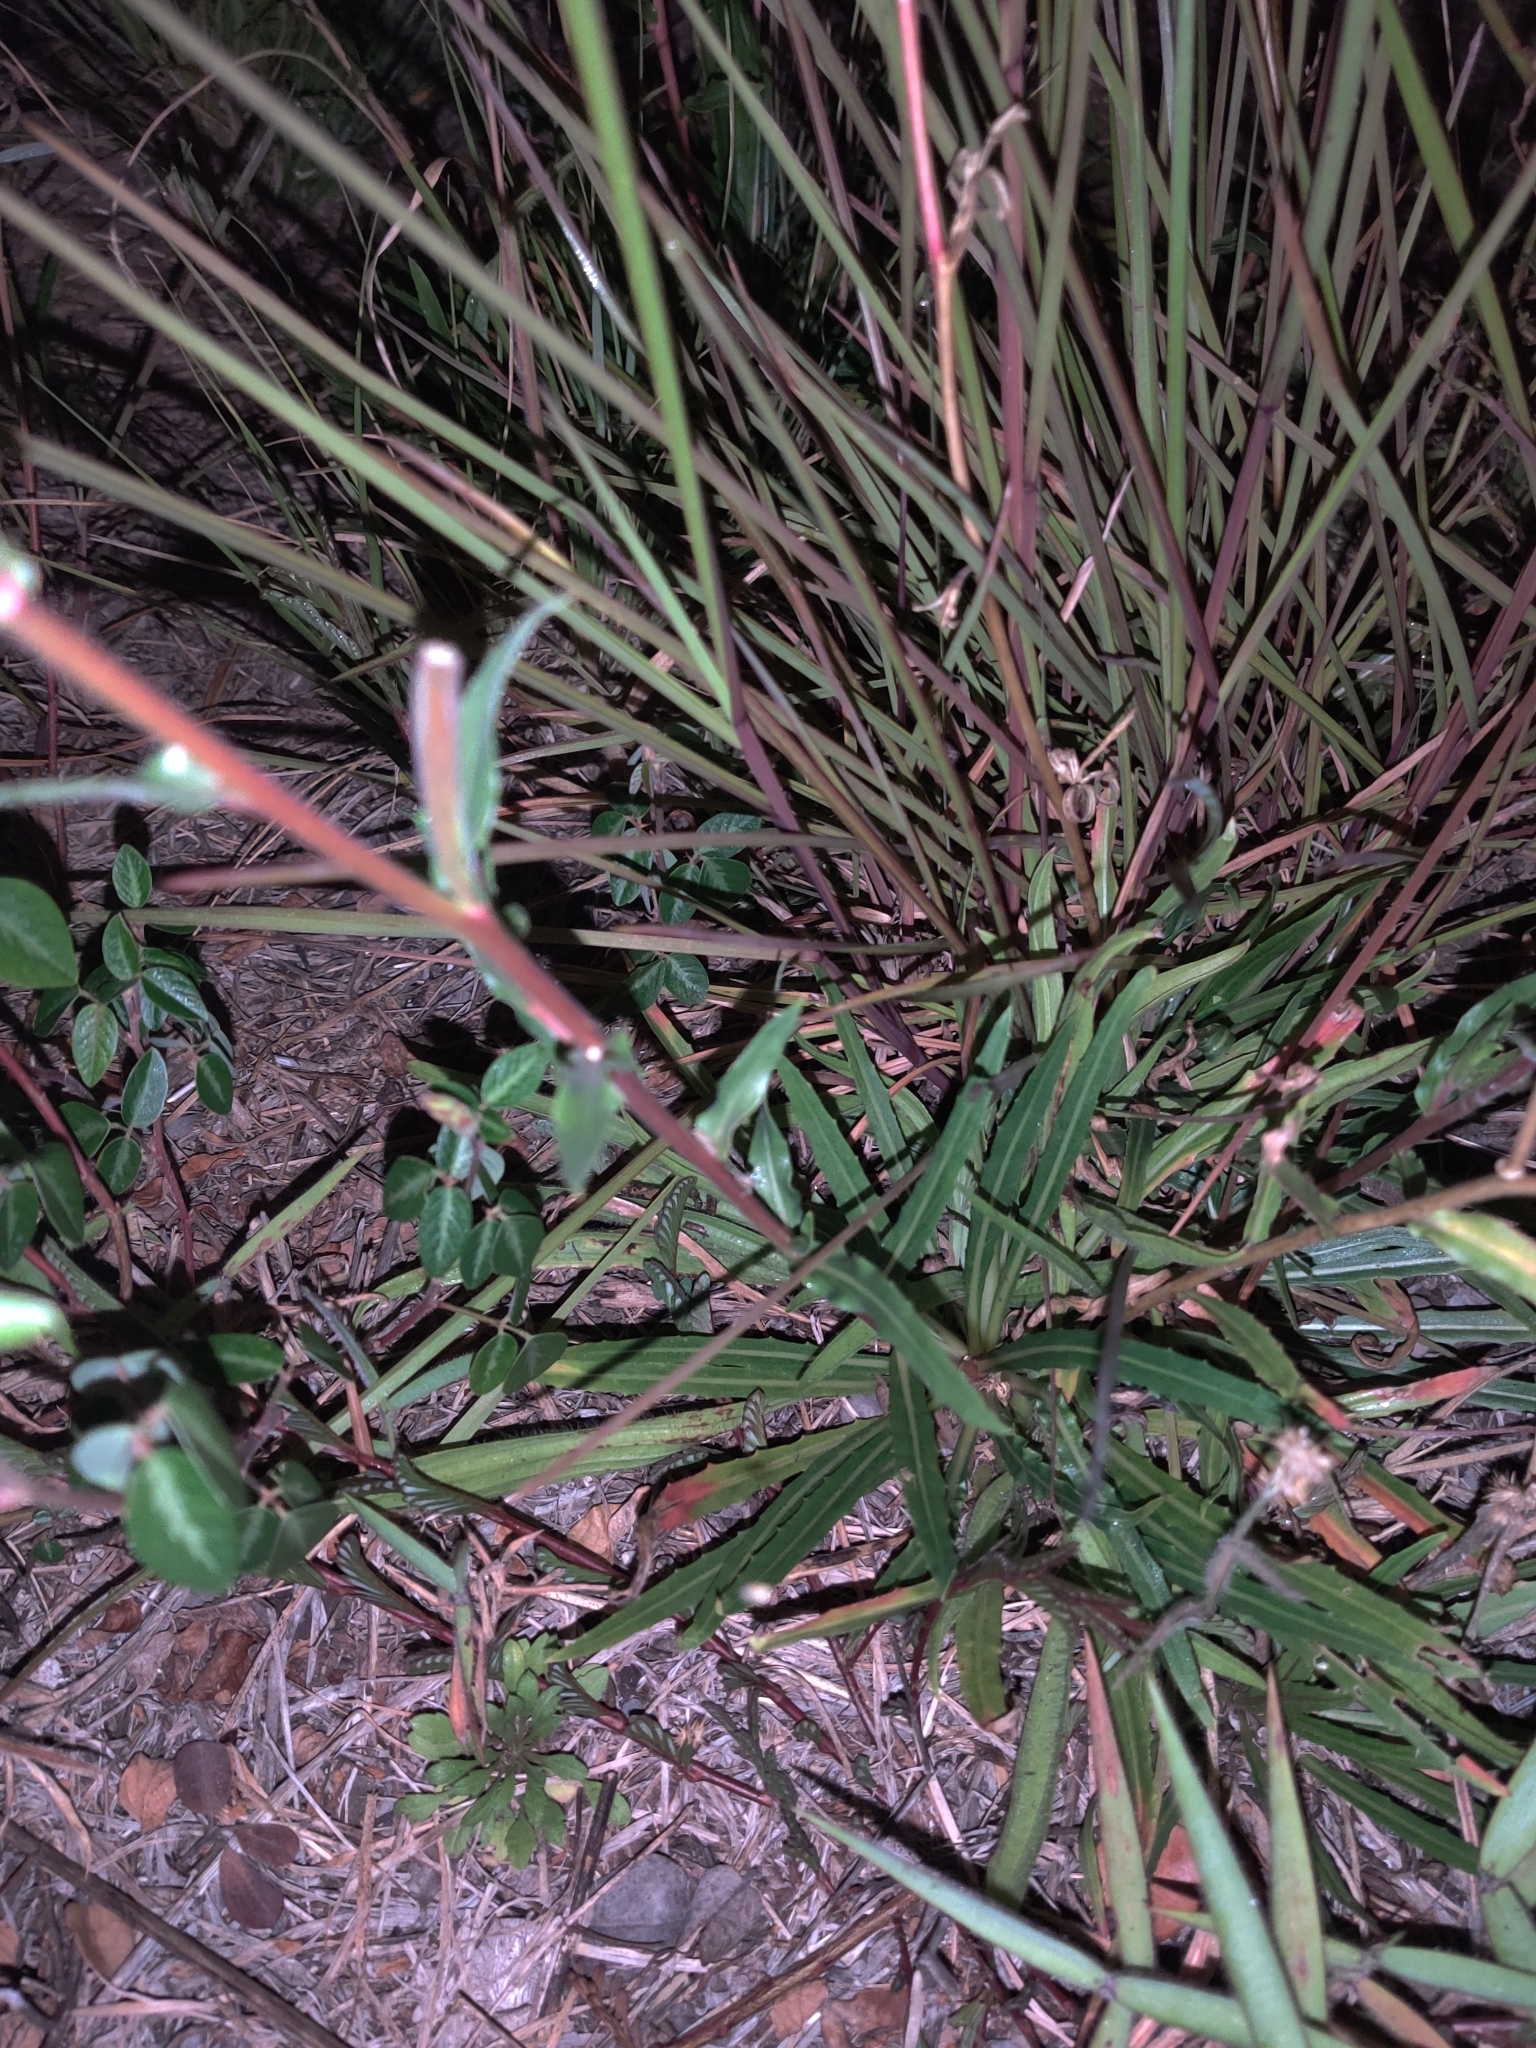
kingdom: Plantae
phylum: Tracheophyta
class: Magnoliopsida
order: Myrtales
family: Onagraceae
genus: Oenothera
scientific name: Oenothera stricta
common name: Fragrant evening-primrose
